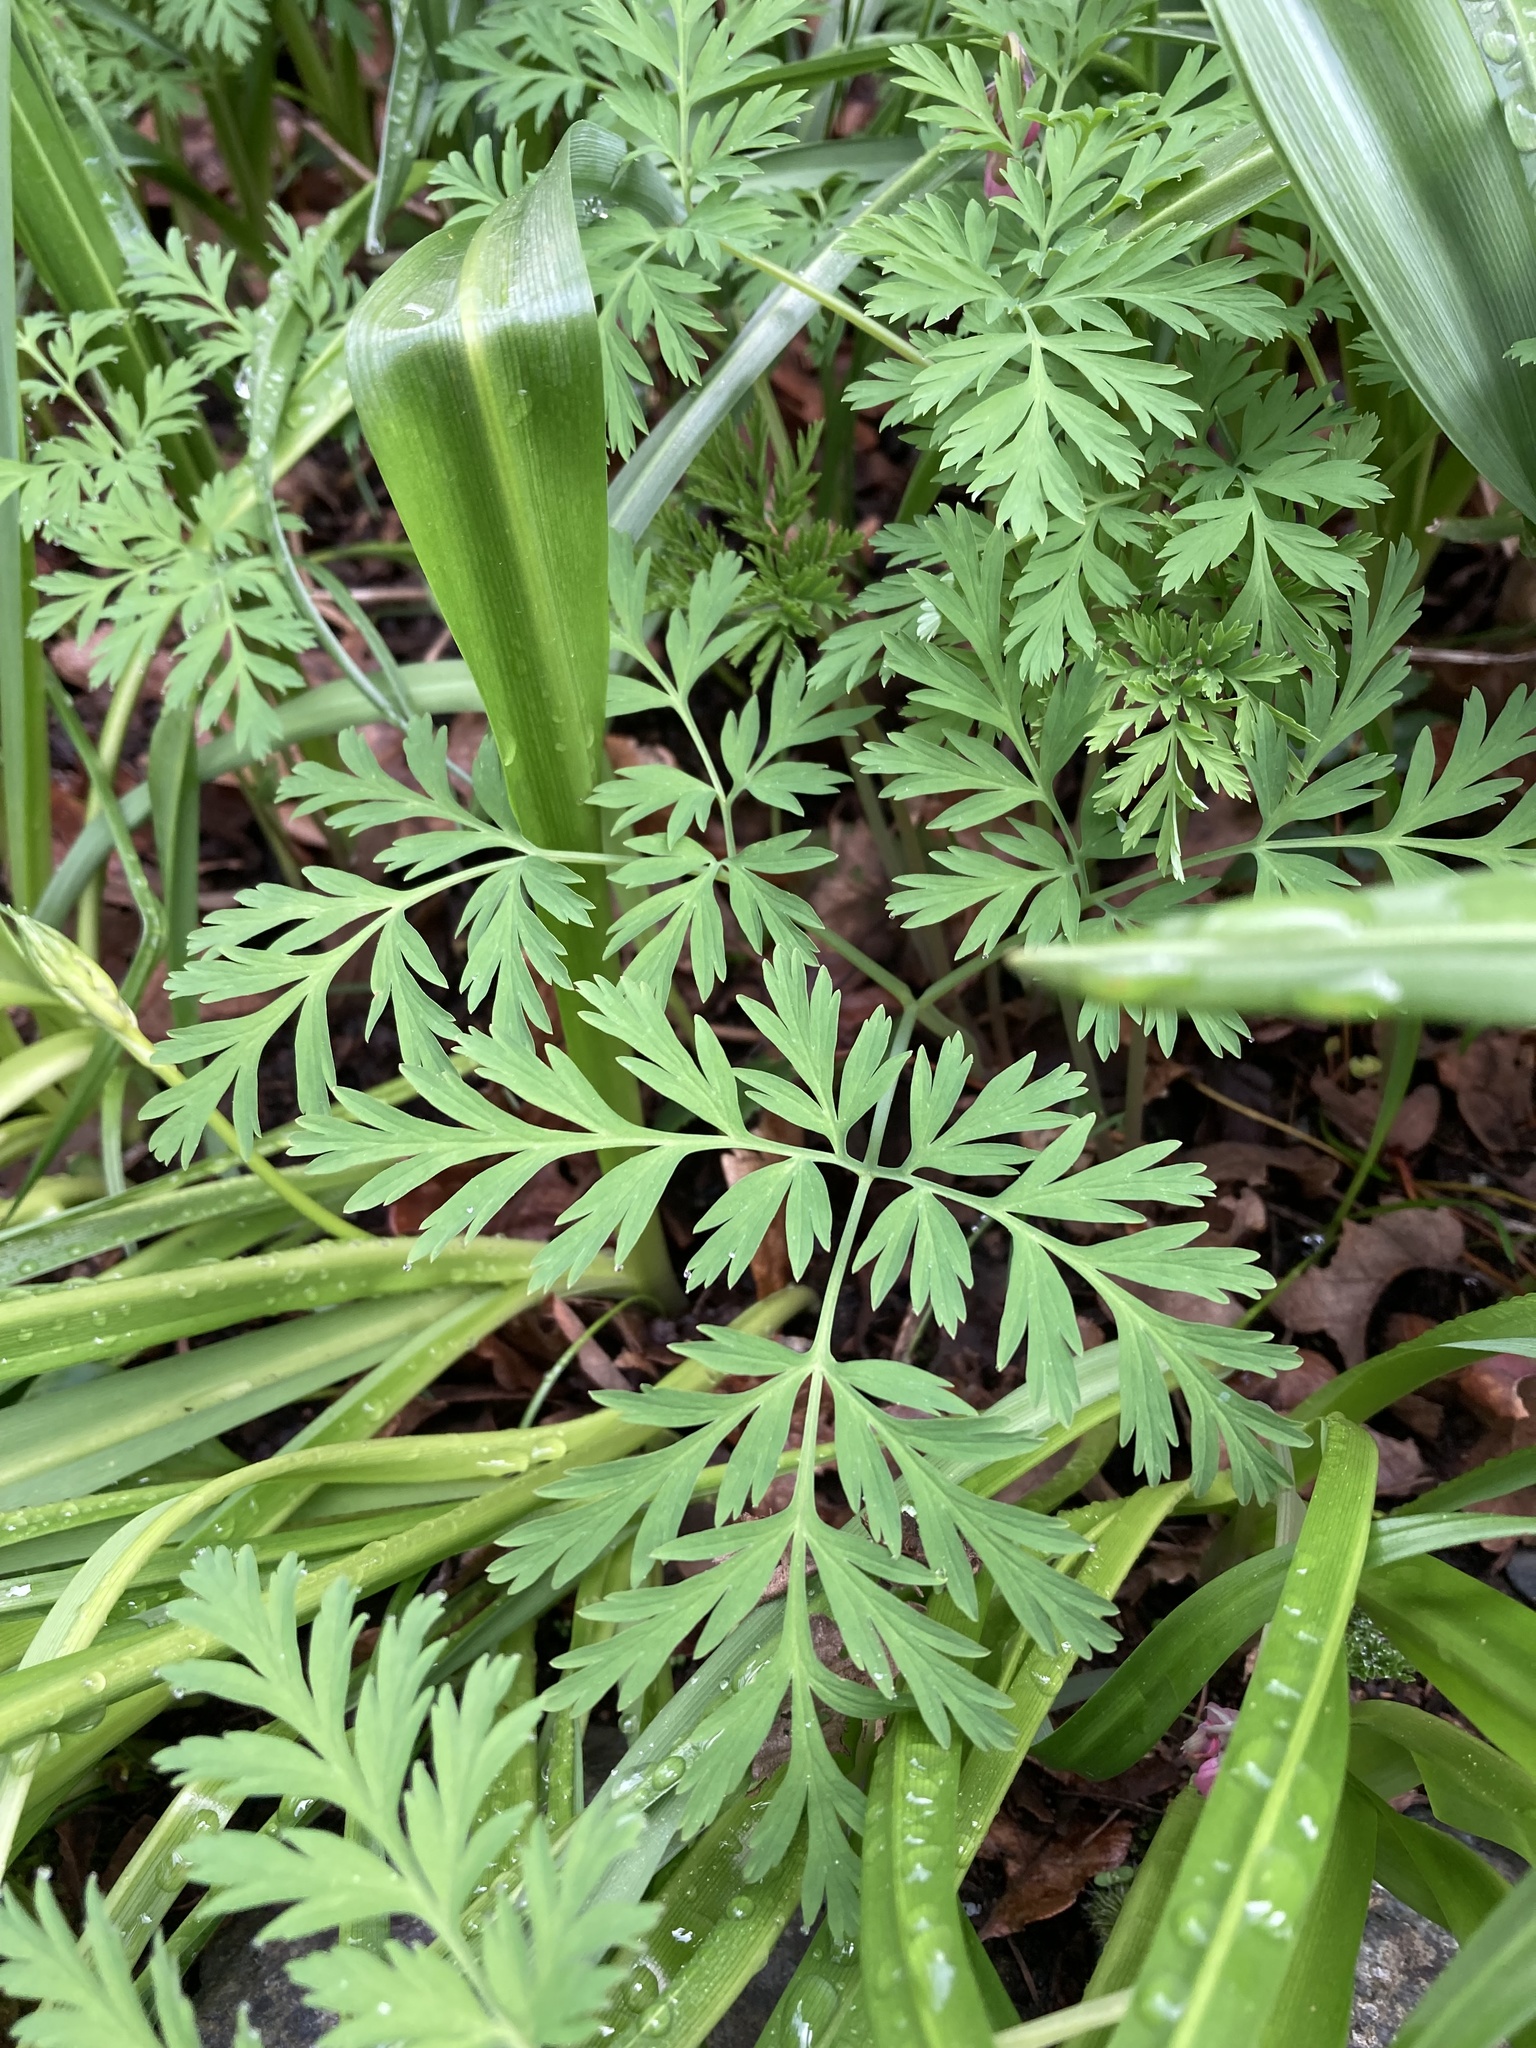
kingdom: Plantae
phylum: Tracheophyta
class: Magnoliopsida
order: Ranunculales
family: Papaveraceae
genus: Dicentra
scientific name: Dicentra formosa
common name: Bleeding-heart
